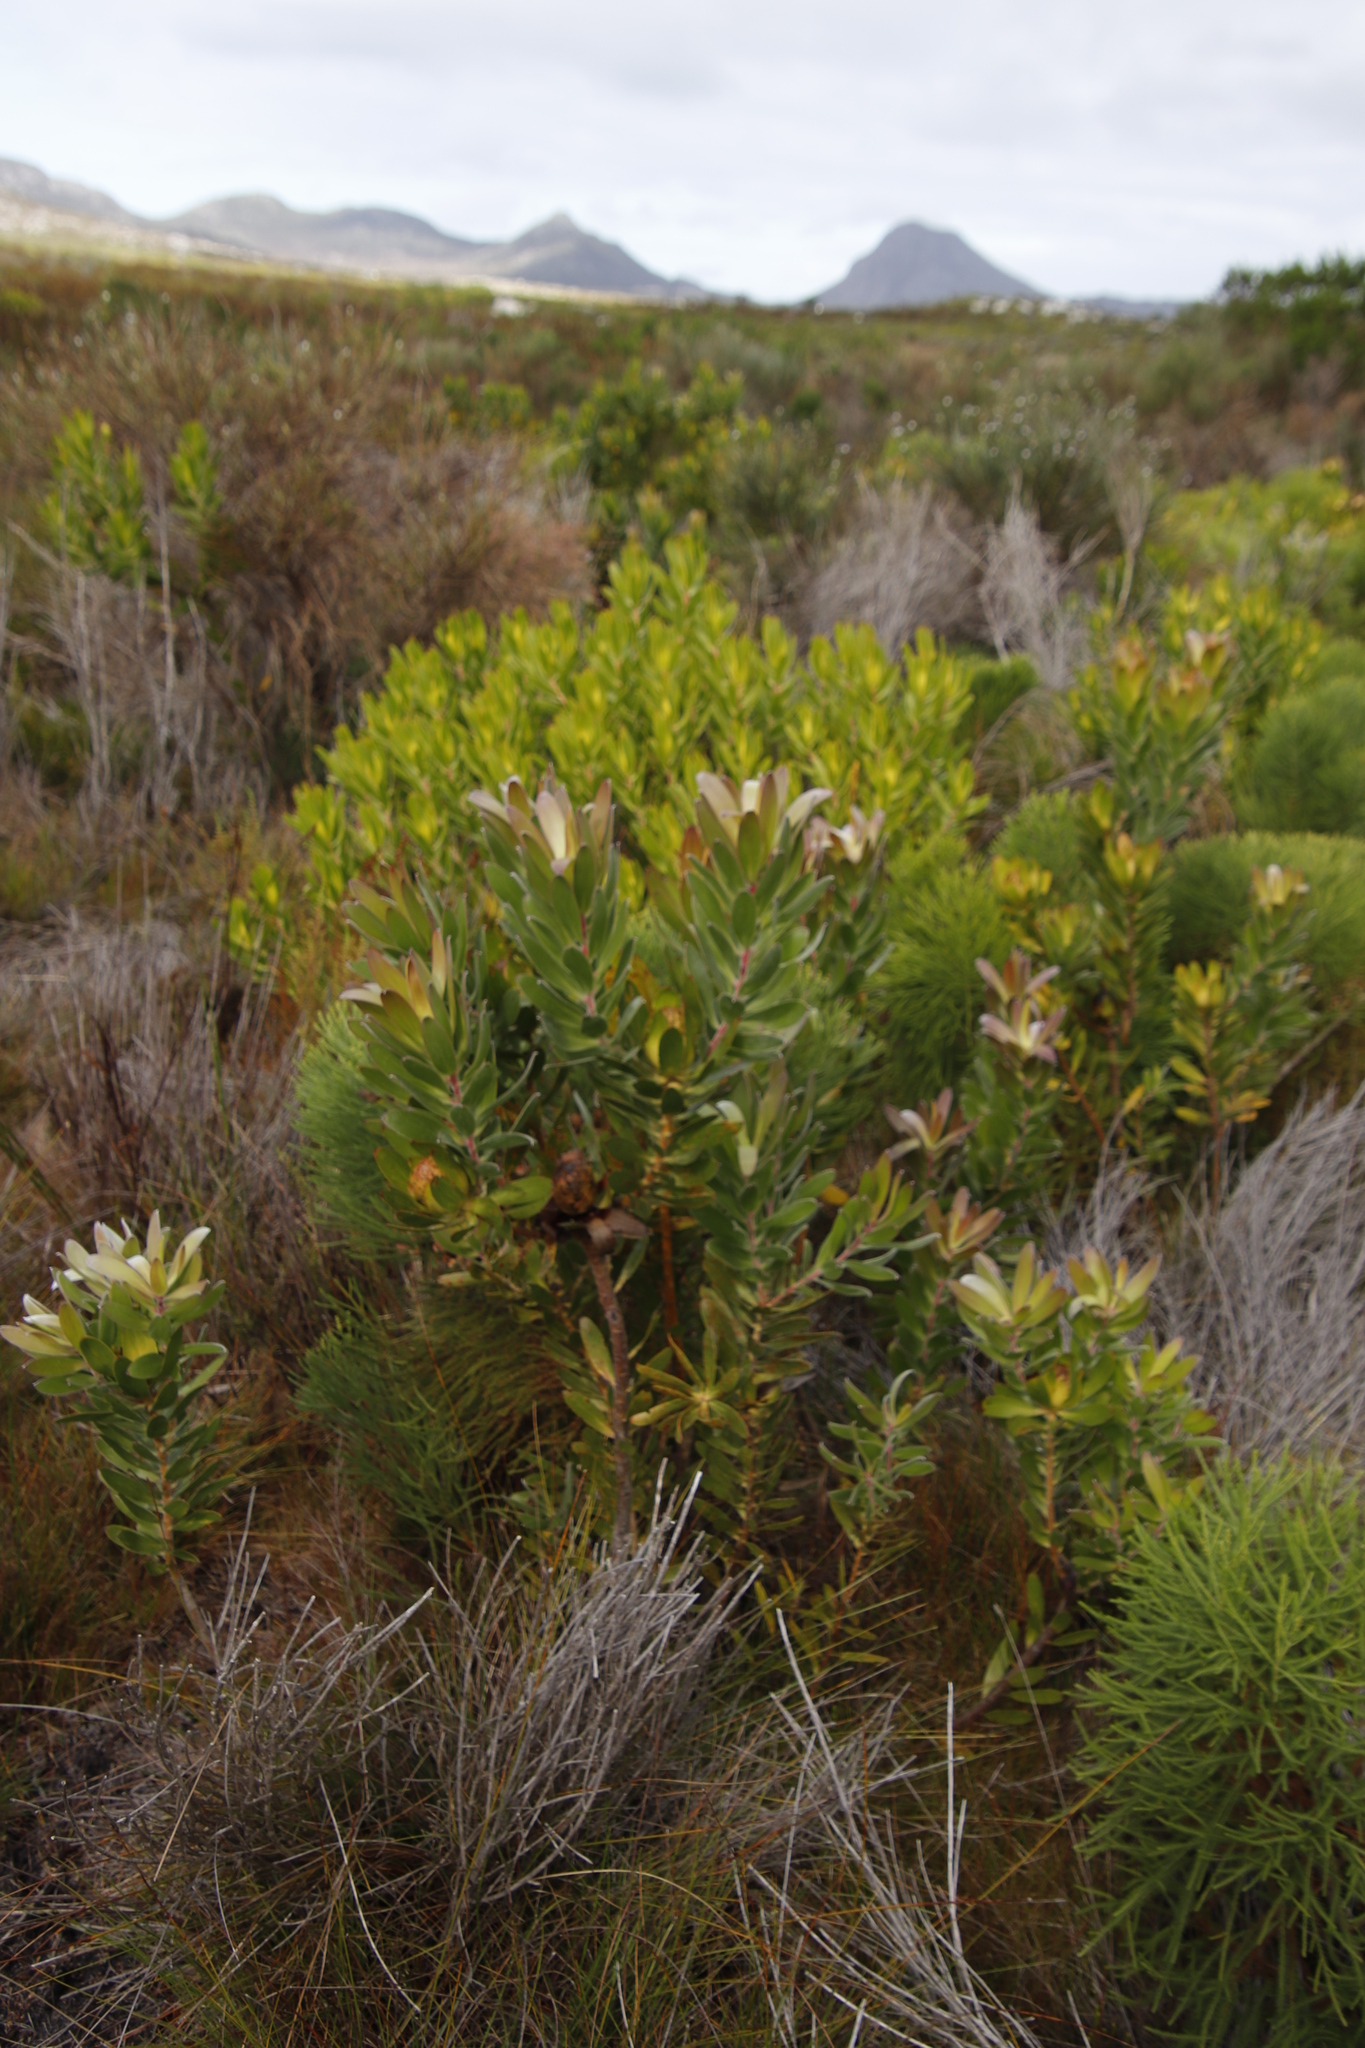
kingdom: Plantae
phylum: Tracheophyta
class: Magnoliopsida
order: Proteales
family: Proteaceae
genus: Leucadendron
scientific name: Leucadendron laureolum
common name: Golden sunshinebush
